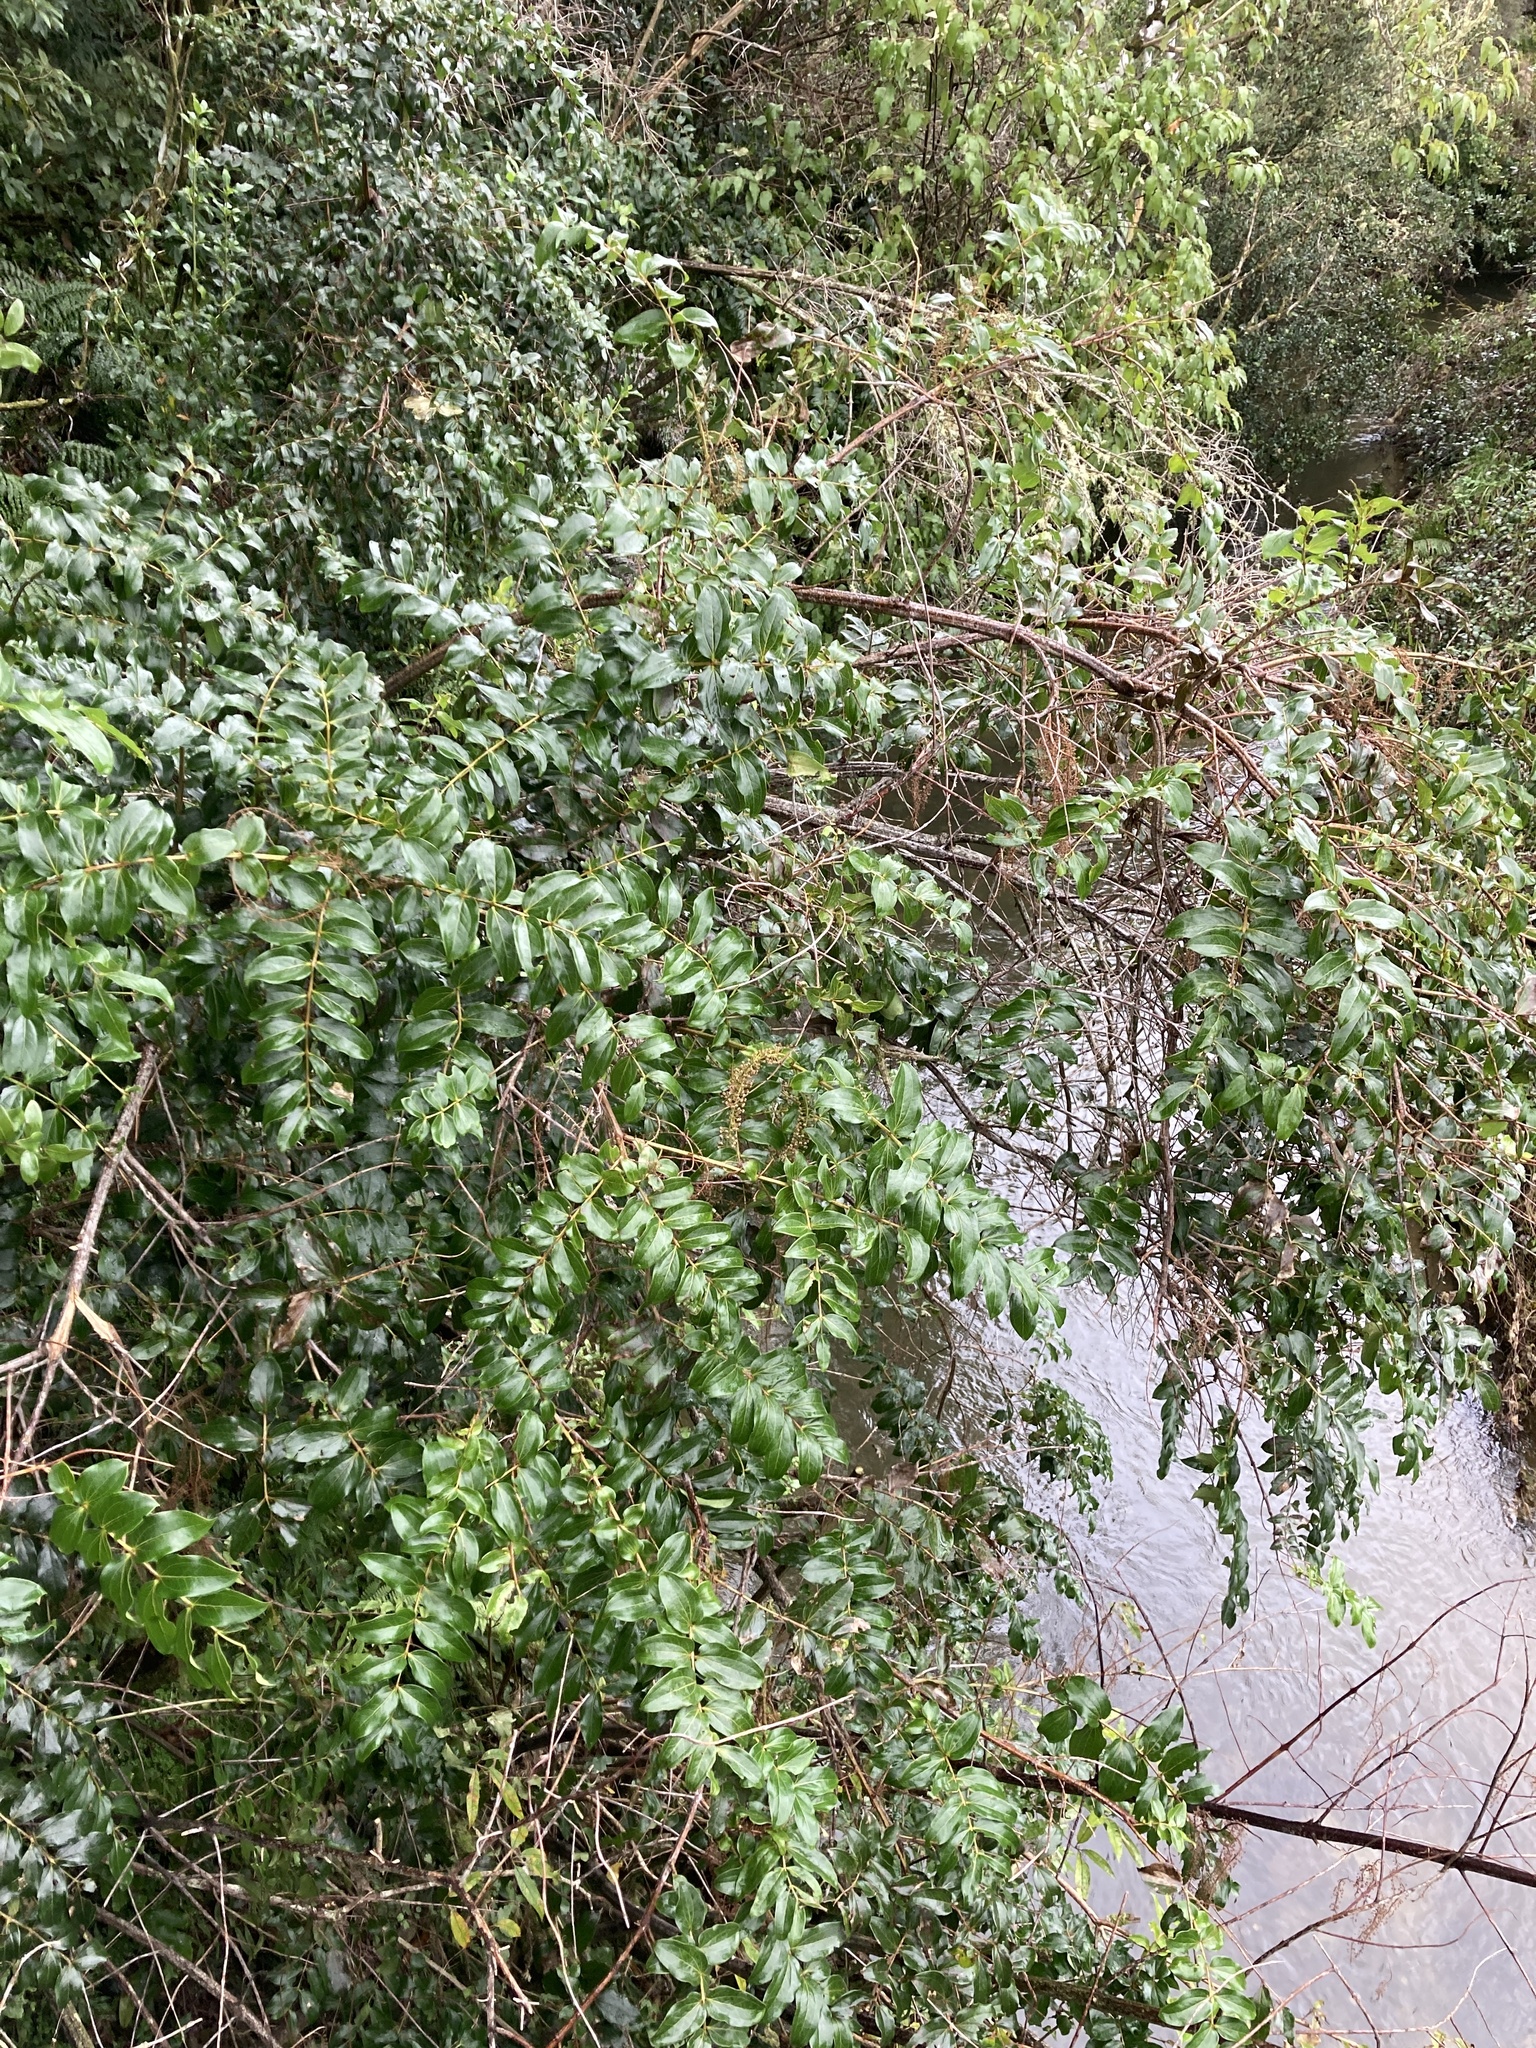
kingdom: Plantae
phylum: Tracheophyta
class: Magnoliopsida
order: Cucurbitales
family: Coriariaceae
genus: Coriaria
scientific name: Coriaria arborea
